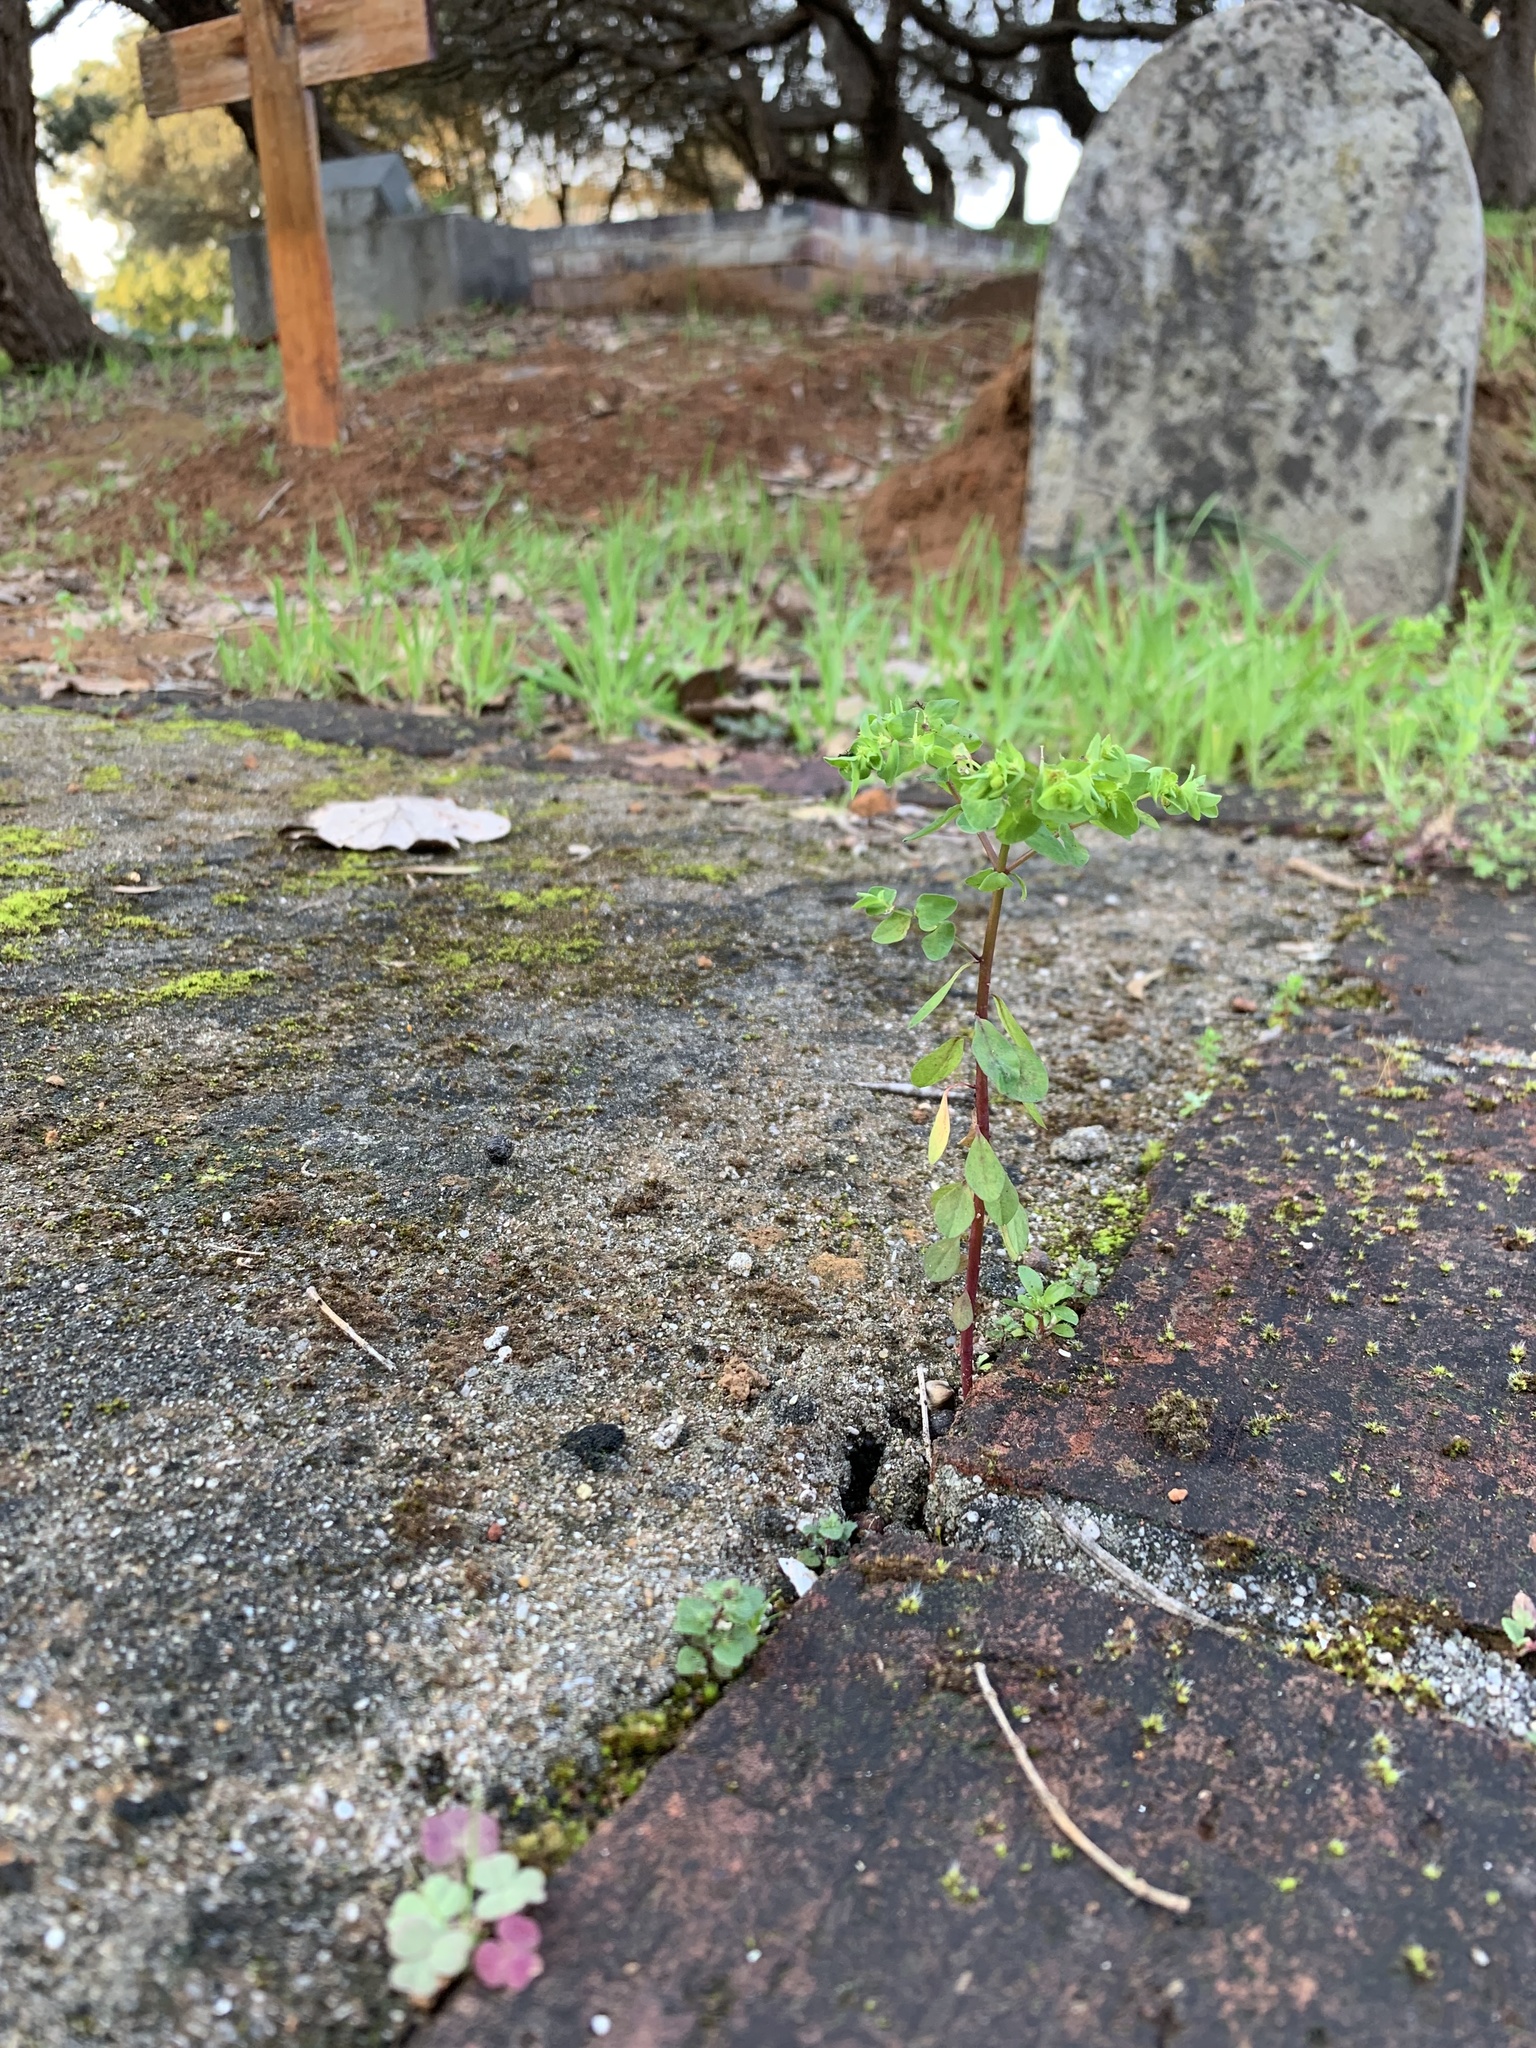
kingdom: Plantae
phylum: Tracheophyta
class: Magnoliopsida
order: Malpighiales
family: Euphorbiaceae
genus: Euphorbia
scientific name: Euphorbia peplus
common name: Petty spurge
